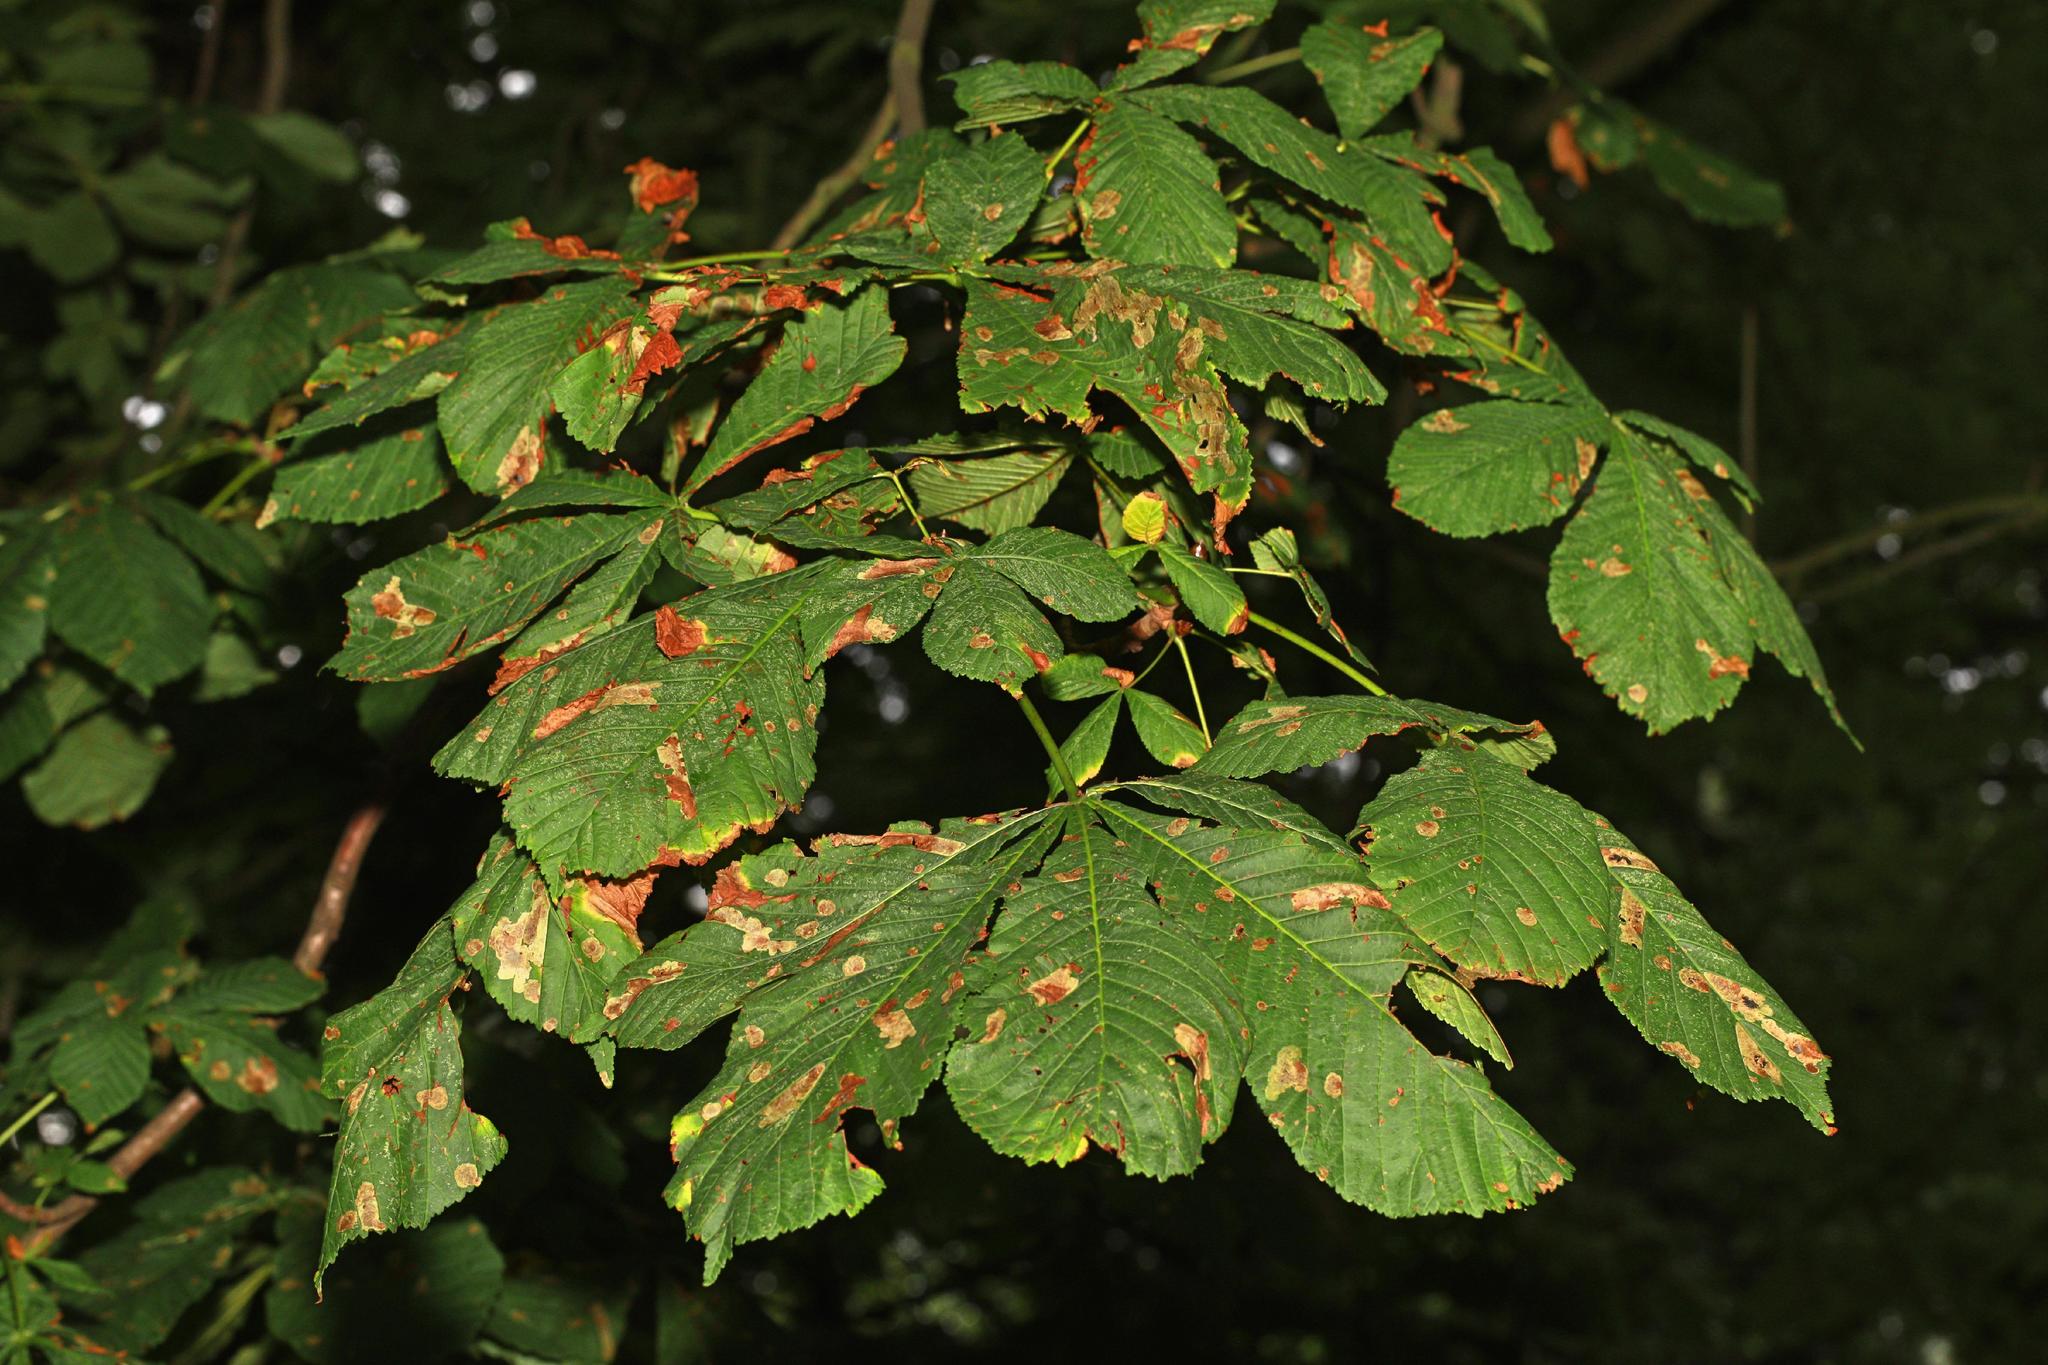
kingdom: Plantae
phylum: Tracheophyta
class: Magnoliopsida
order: Sapindales
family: Sapindaceae
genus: Aesculus
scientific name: Aesculus hippocastanum
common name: Horse-chestnut
